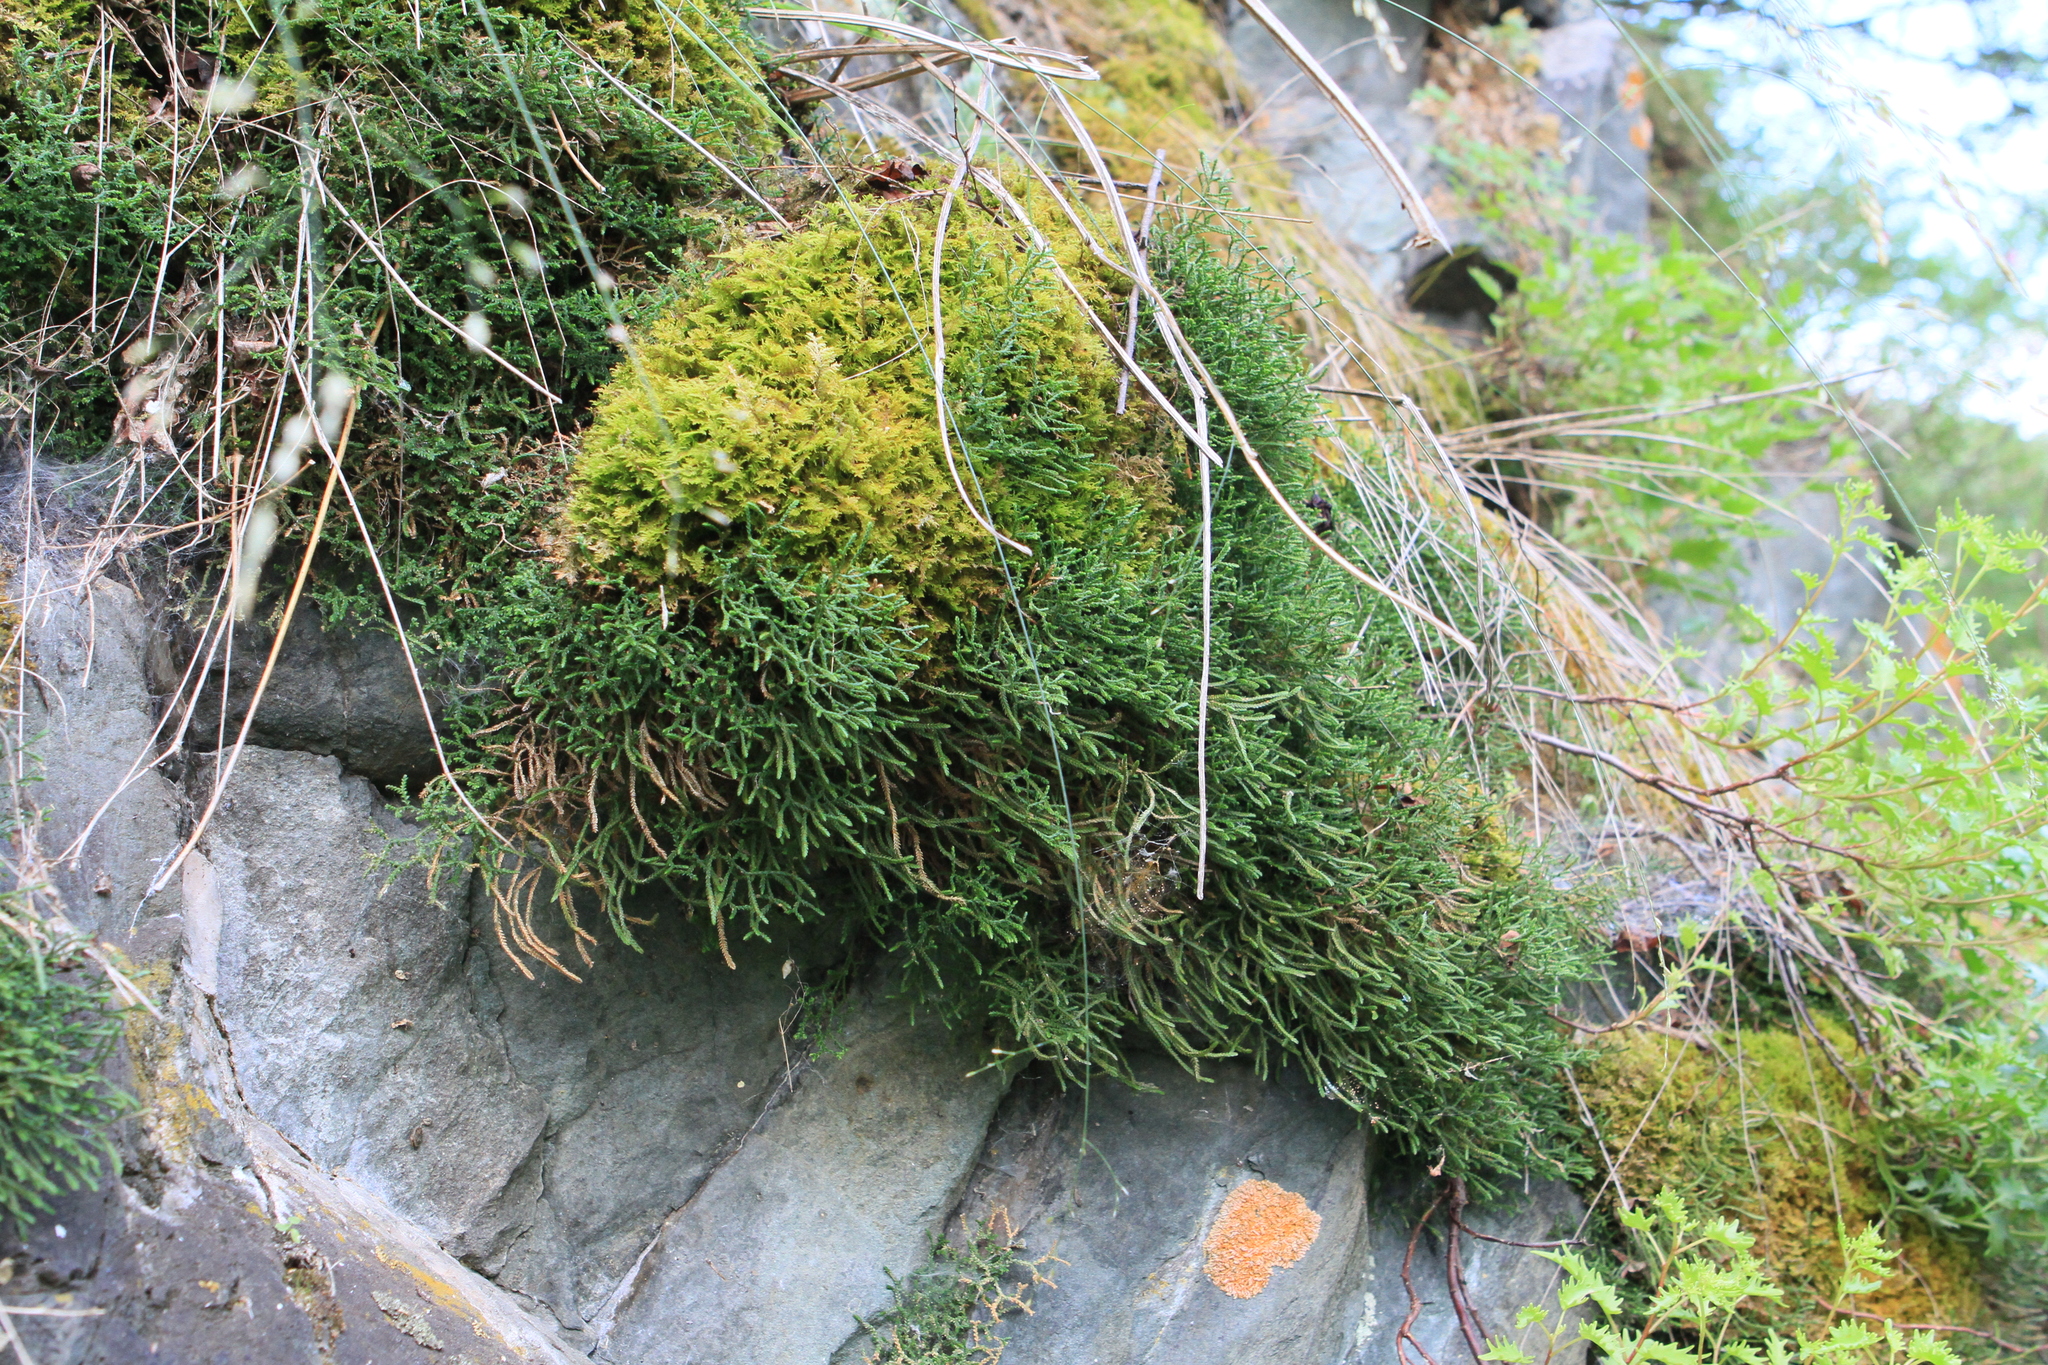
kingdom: Plantae
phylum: Tracheophyta
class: Lycopodiopsida
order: Selaginellales
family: Selaginellaceae
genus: Selaginella
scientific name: Selaginella sanguinolenta
